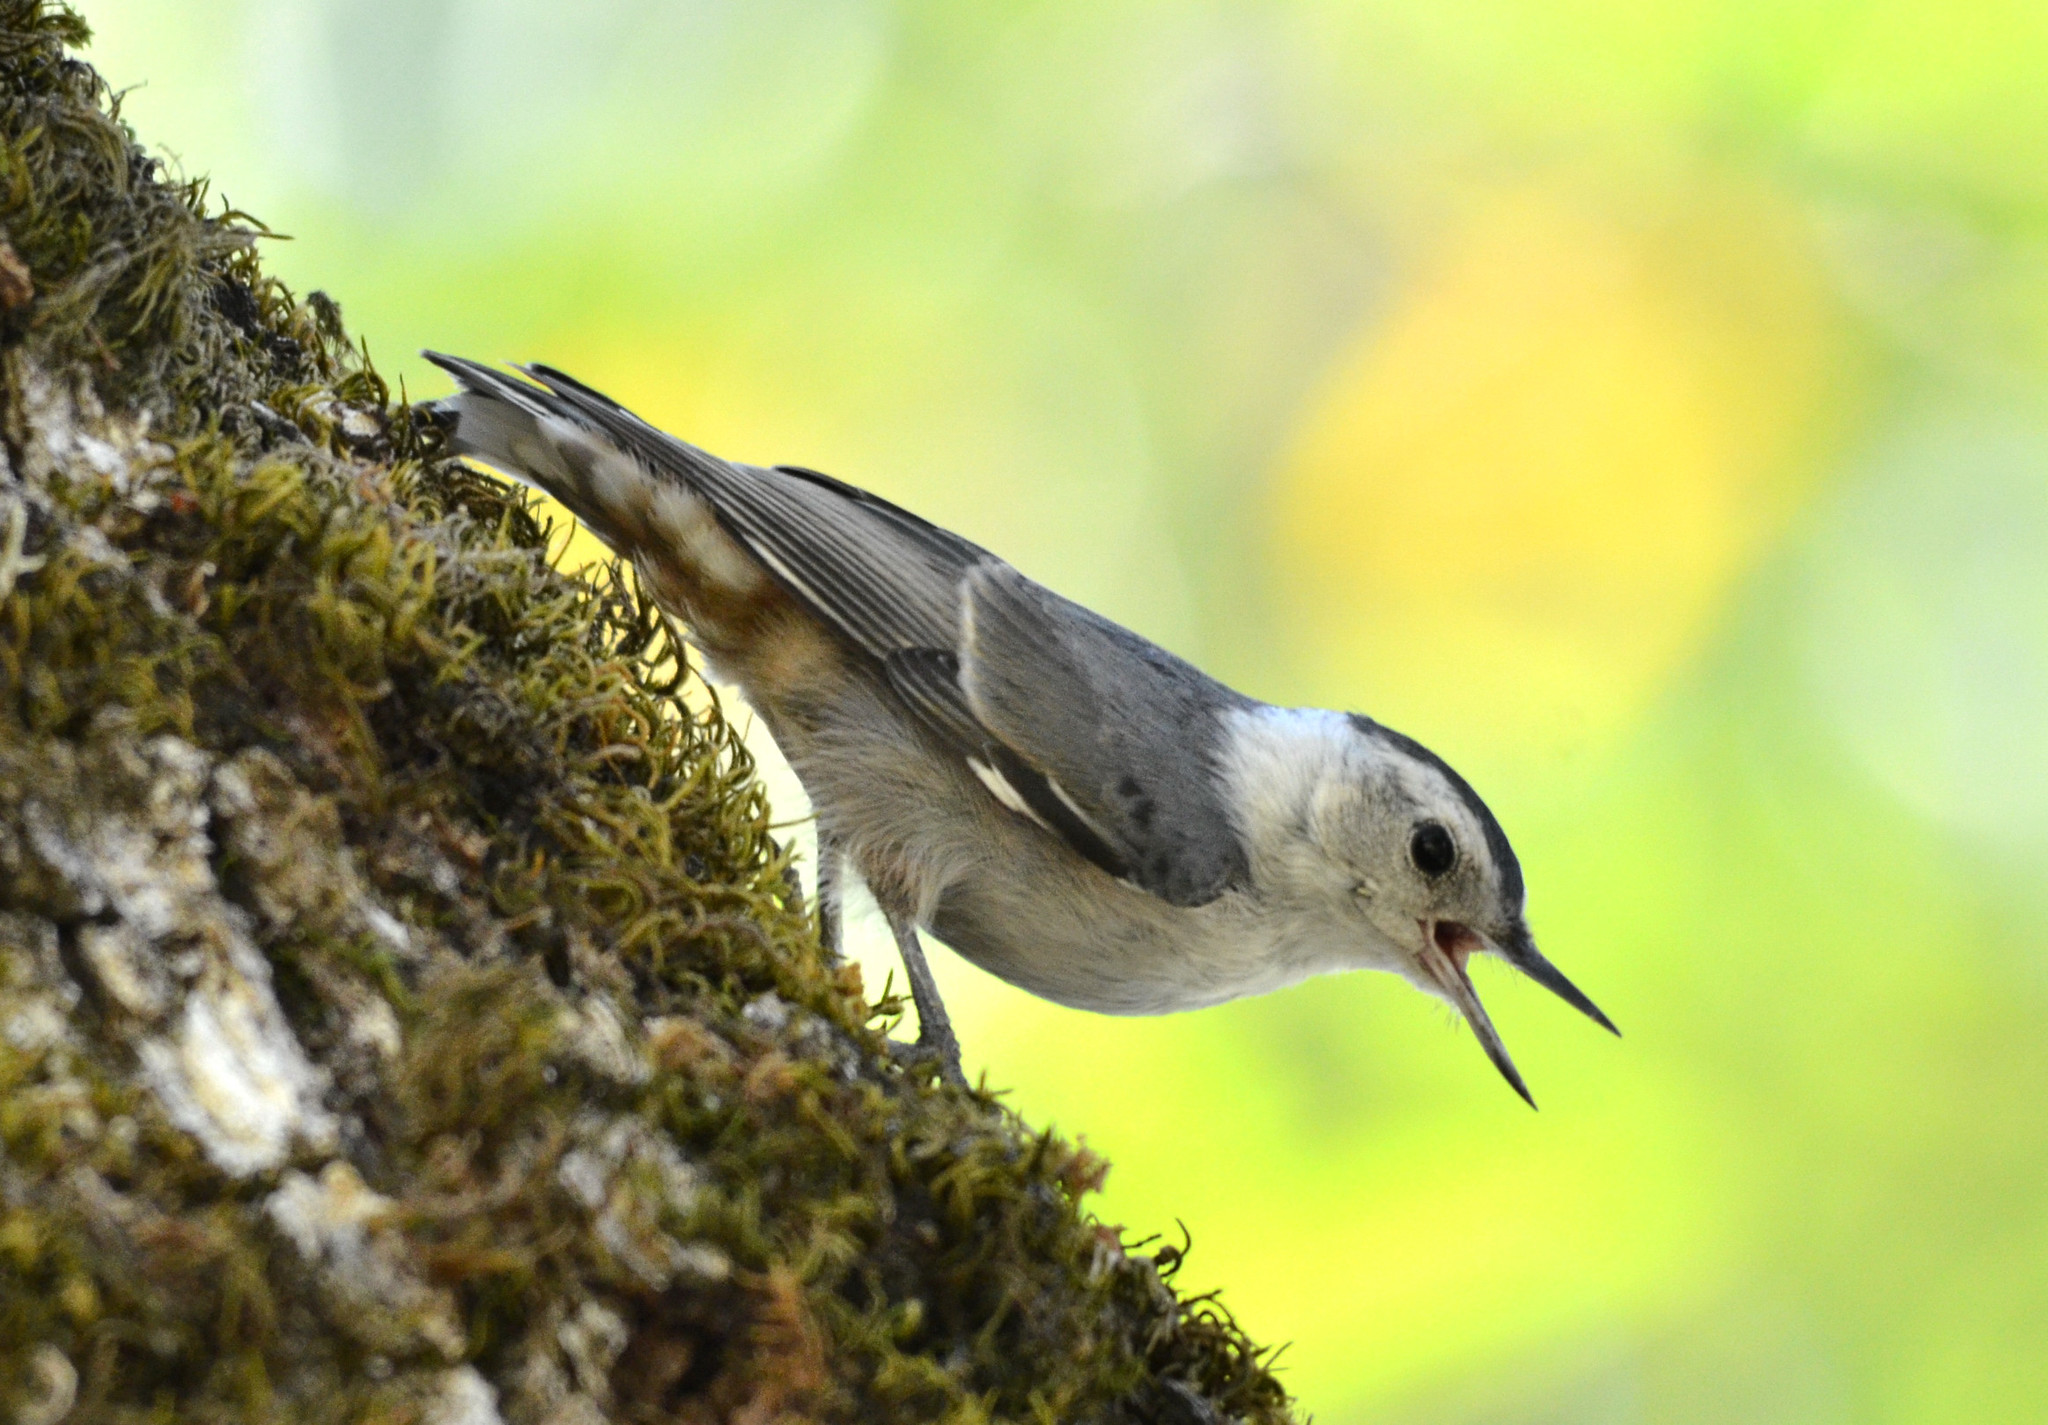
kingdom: Animalia
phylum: Chordata
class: Aves
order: Passeriformes
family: Sittidae
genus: Sitta
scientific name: Sitta carolinensis
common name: White-breasted nuthatch
